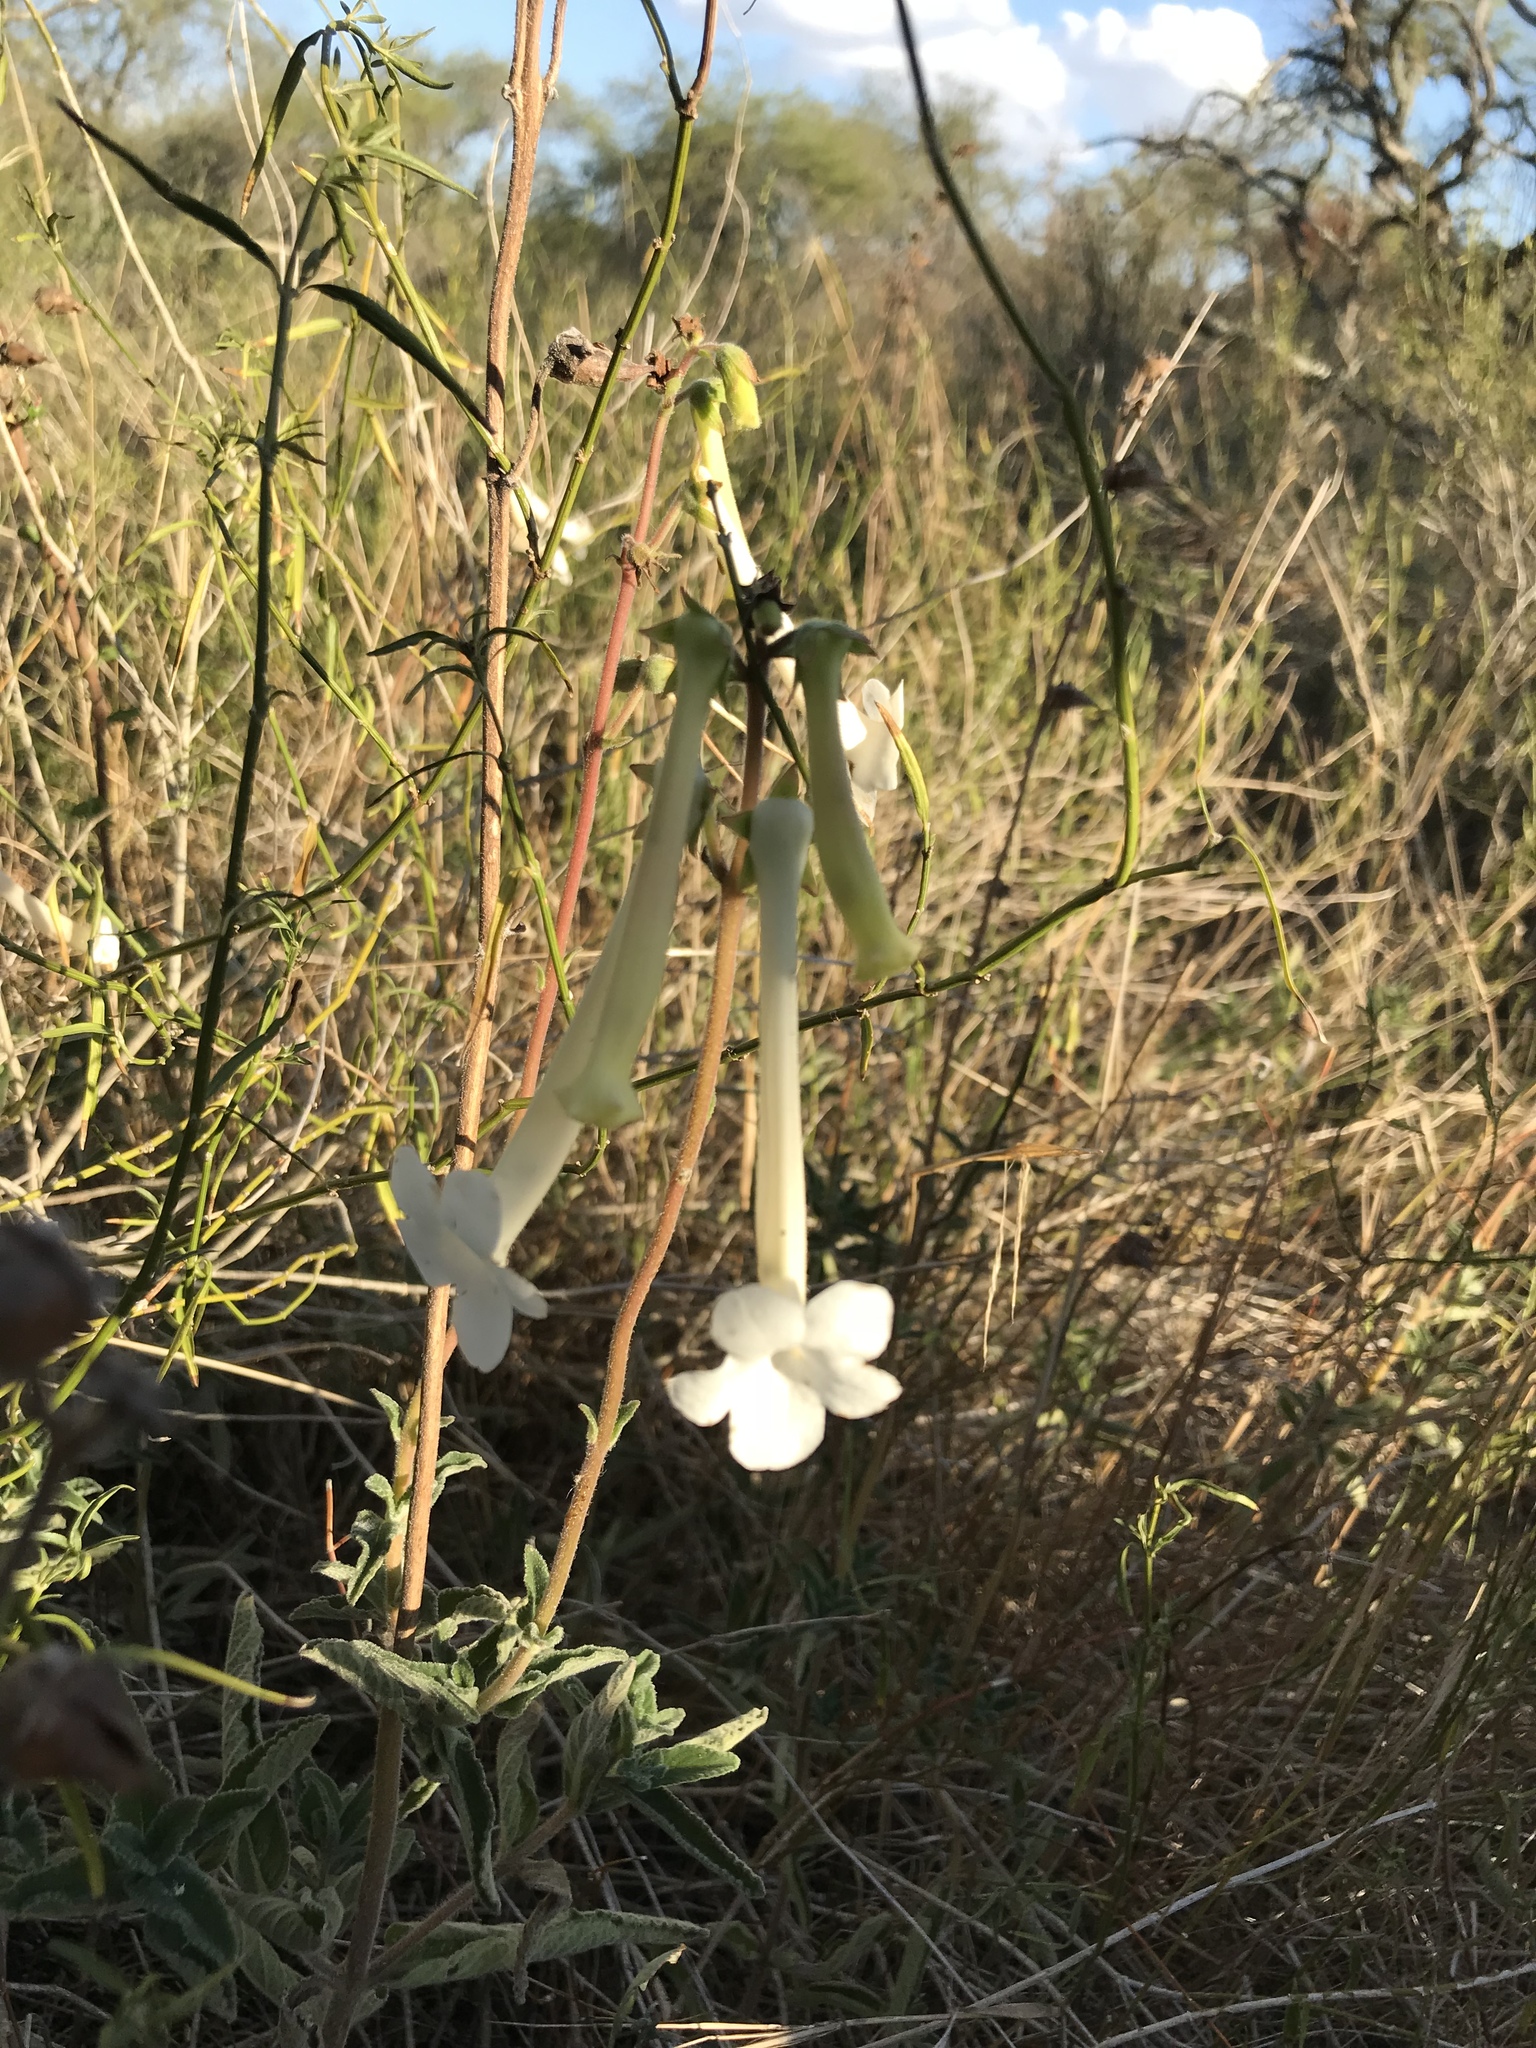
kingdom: Plantae
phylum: Tracheophyta
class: Magnoliopsida
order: Lamiales
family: Gesneriaceae
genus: Sinningia
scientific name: Sinningia tubiflora
